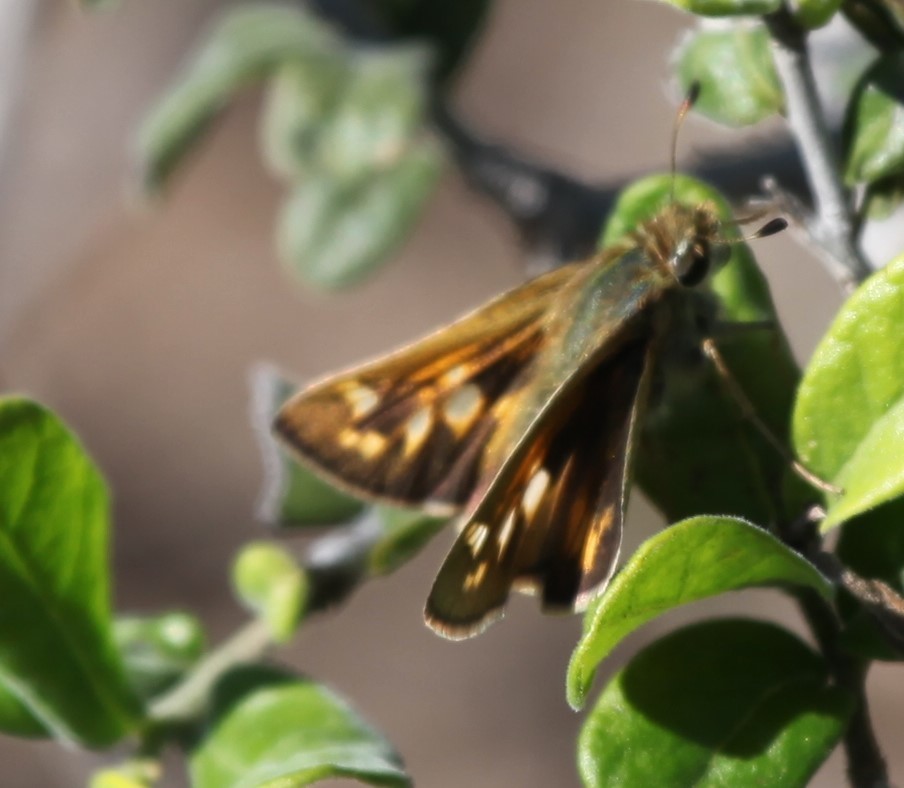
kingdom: Animalia
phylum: Arthropoda
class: Insecta
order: Lepidoptera
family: Hesperiidae
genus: Atalopedes
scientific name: Atalopedes
